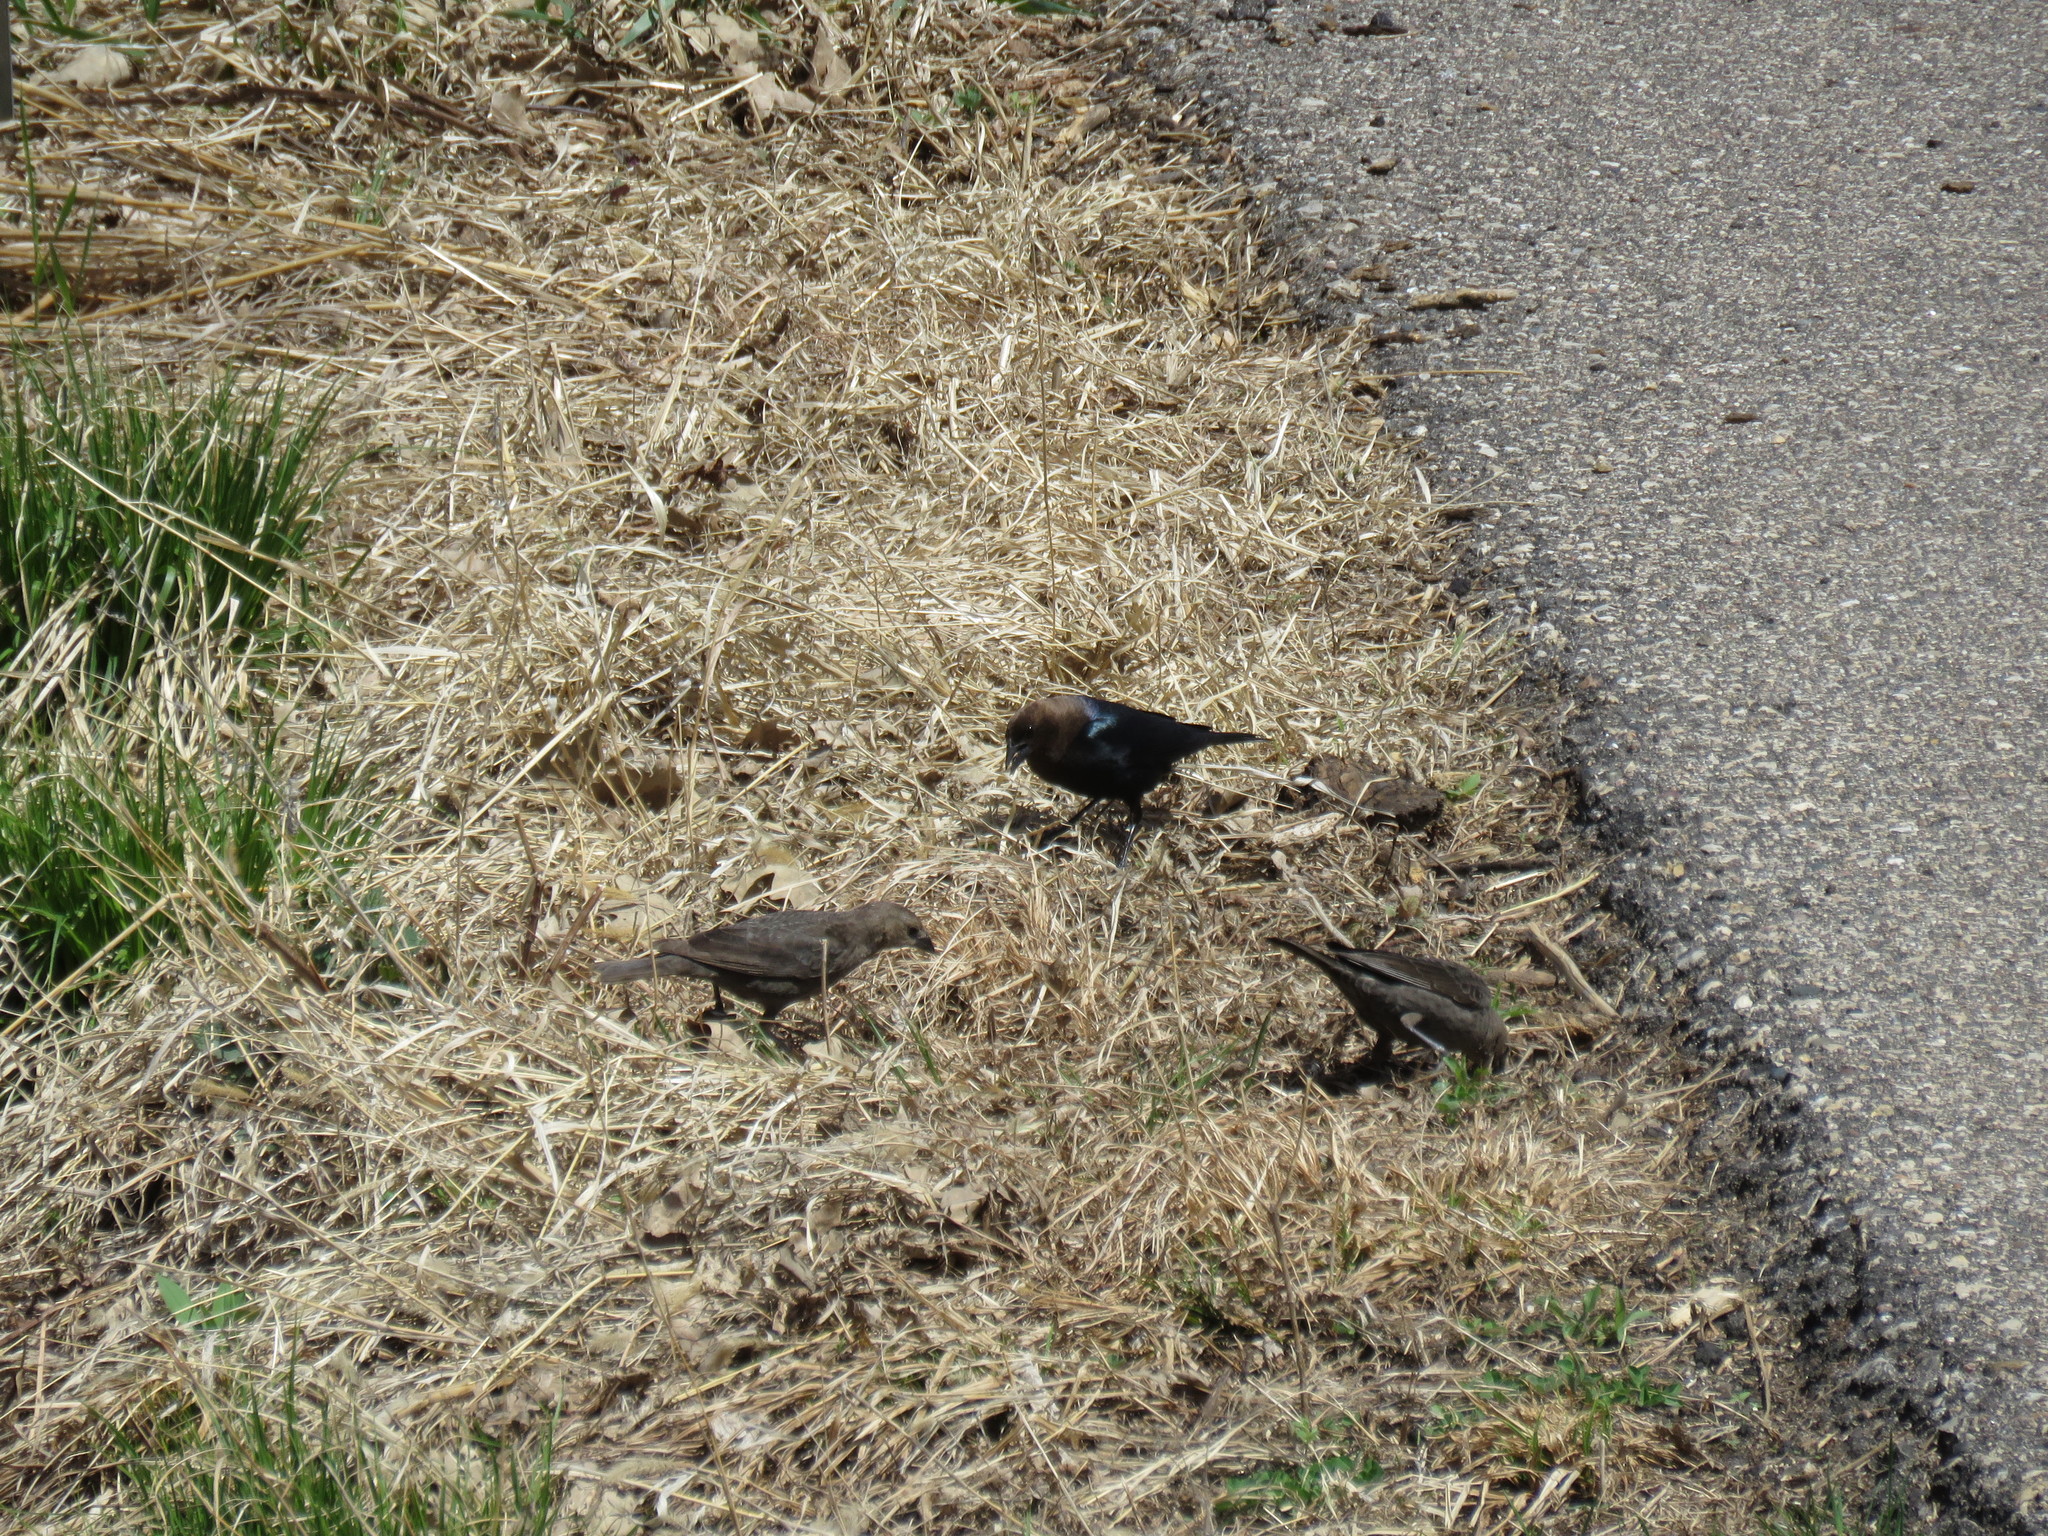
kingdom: Animalia
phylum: Chordata
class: Aves
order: Passeriformes
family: Icteridae
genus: Molothrus
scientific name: Molothrus ater
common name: Brown-headed cowbird
